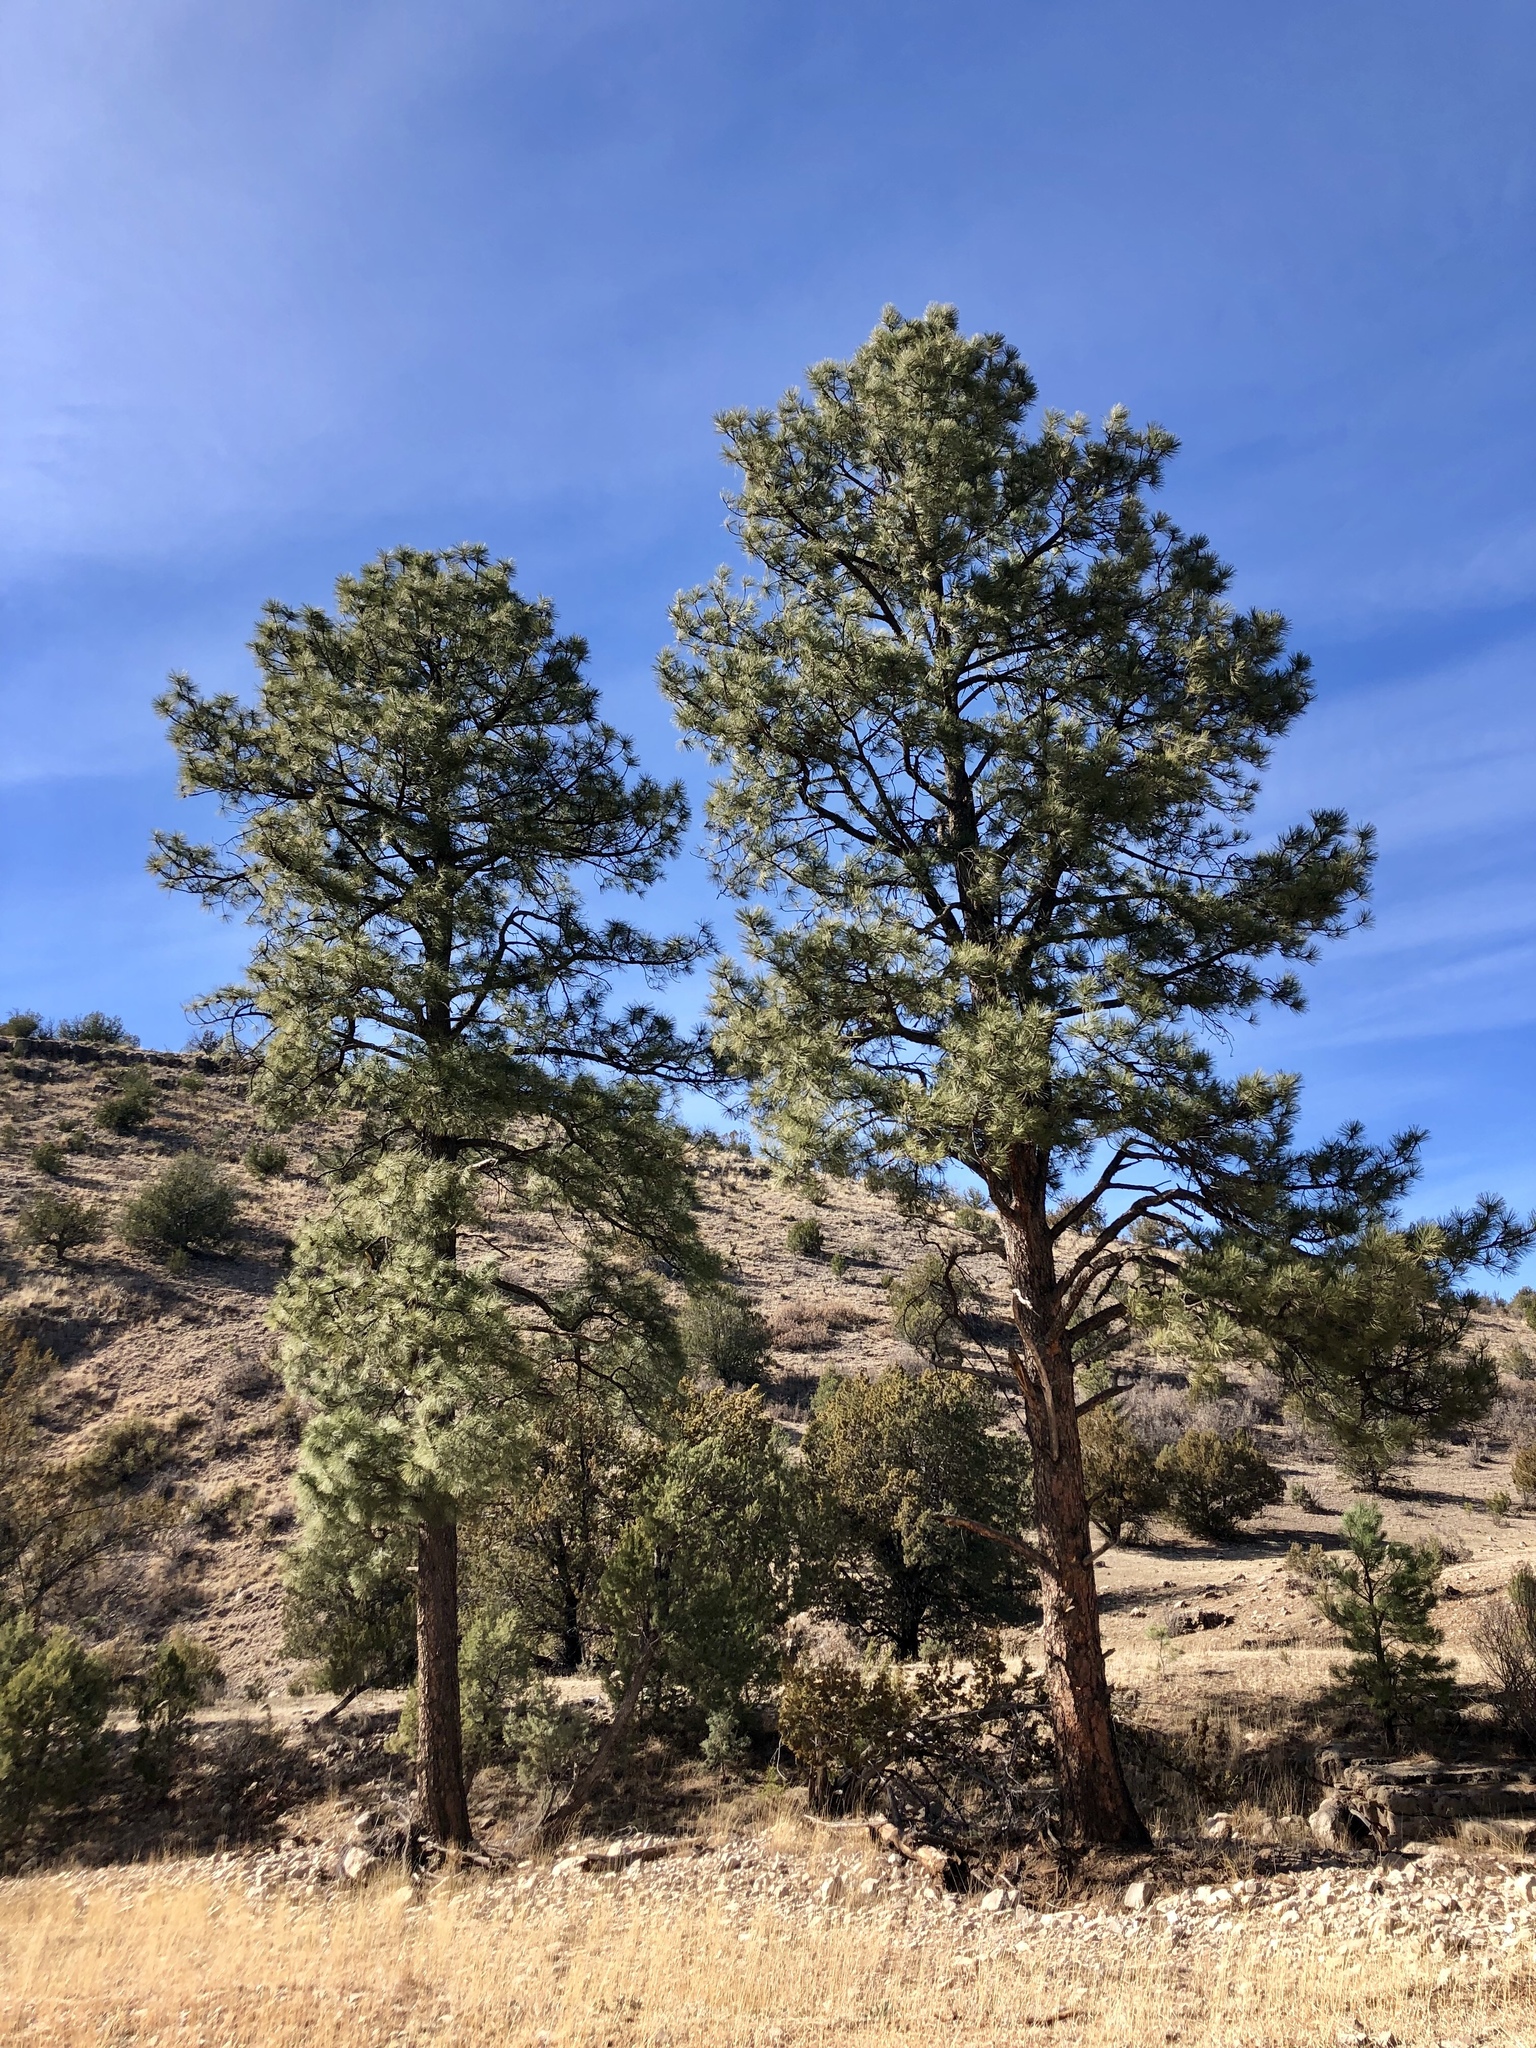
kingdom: Plantae
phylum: Tracheophyta
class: Pinopsida
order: Pinales
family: Pinaceae
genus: Pinus
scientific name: Pinus ponderosa
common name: Western yellow-pine
